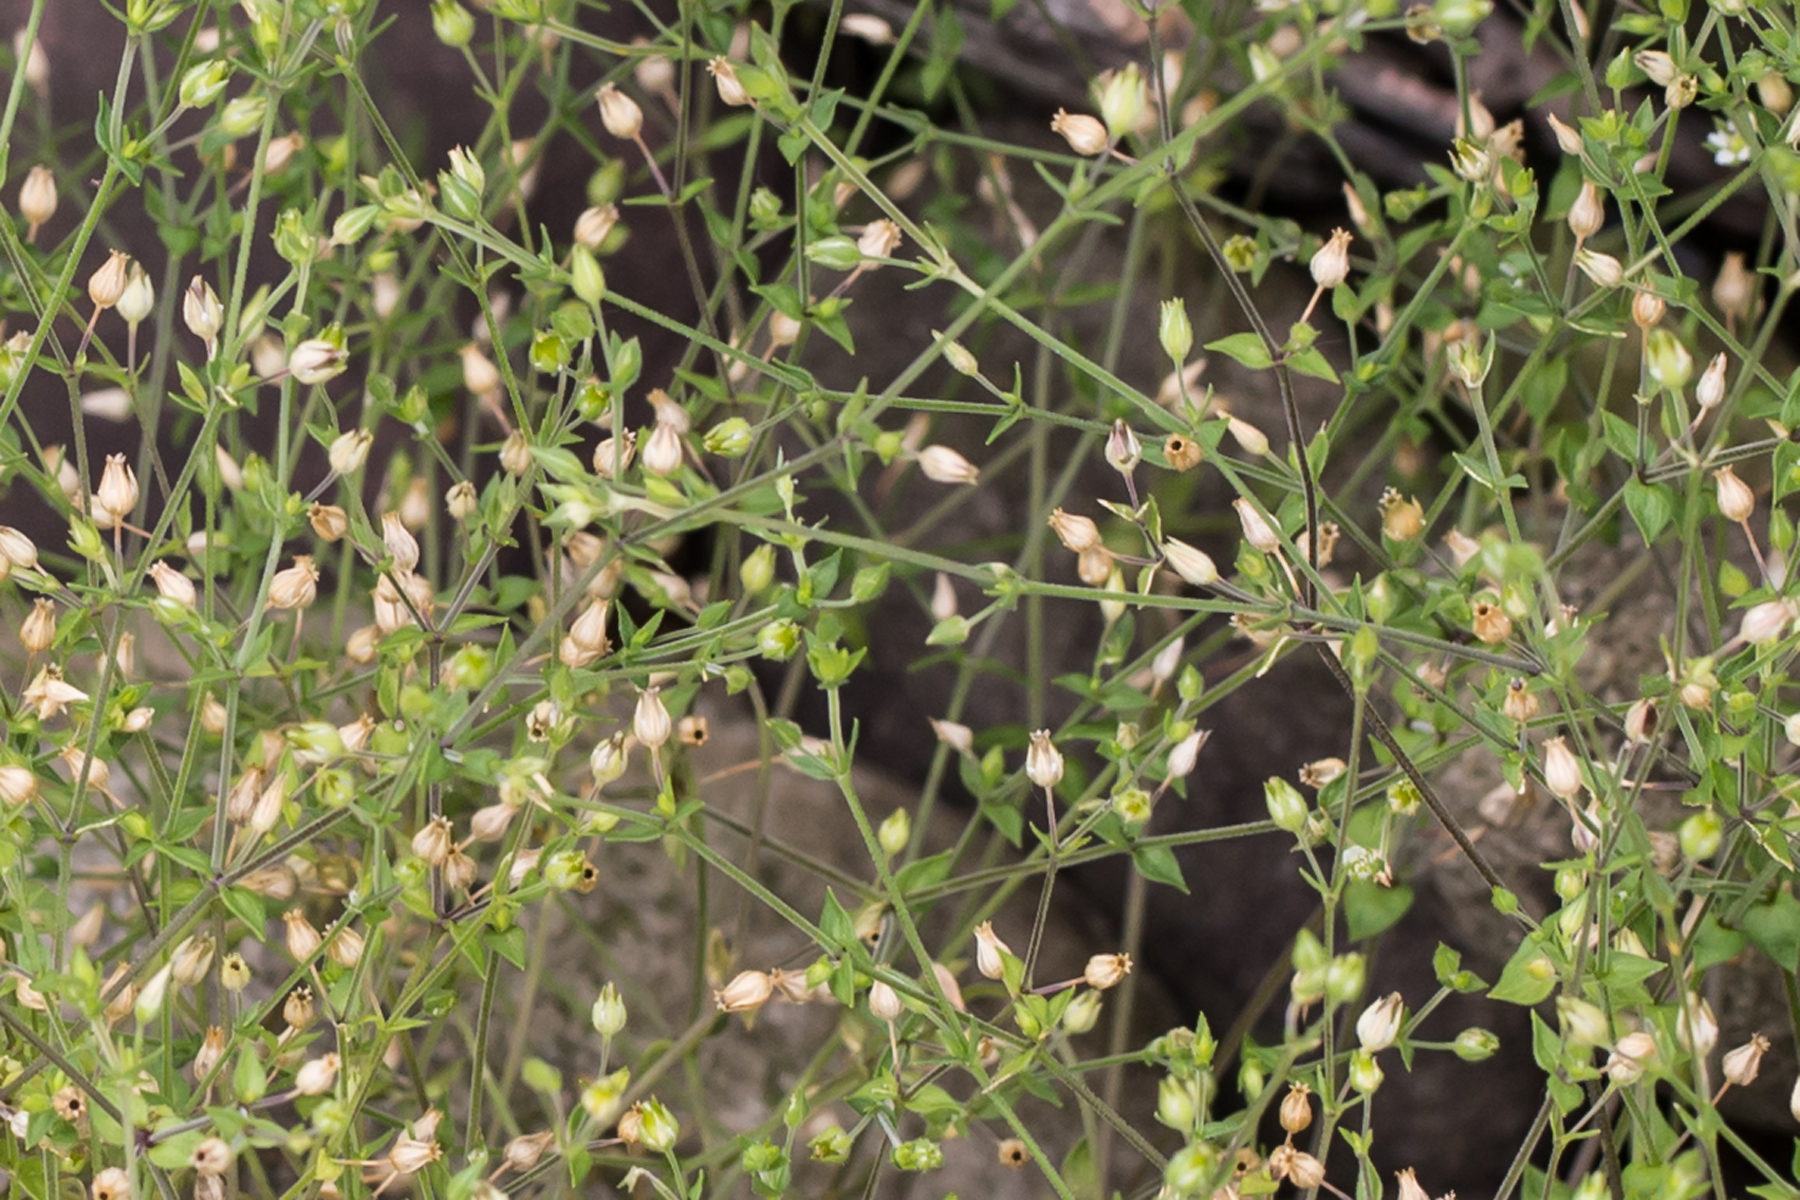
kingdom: Plantae
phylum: Tracheophyta
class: Magnoliopsida
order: Caryophyllales
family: Caryophyllaceae
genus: Arenaria
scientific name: Arenaria serpyllifolia
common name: Thyme-leaved sandwort
